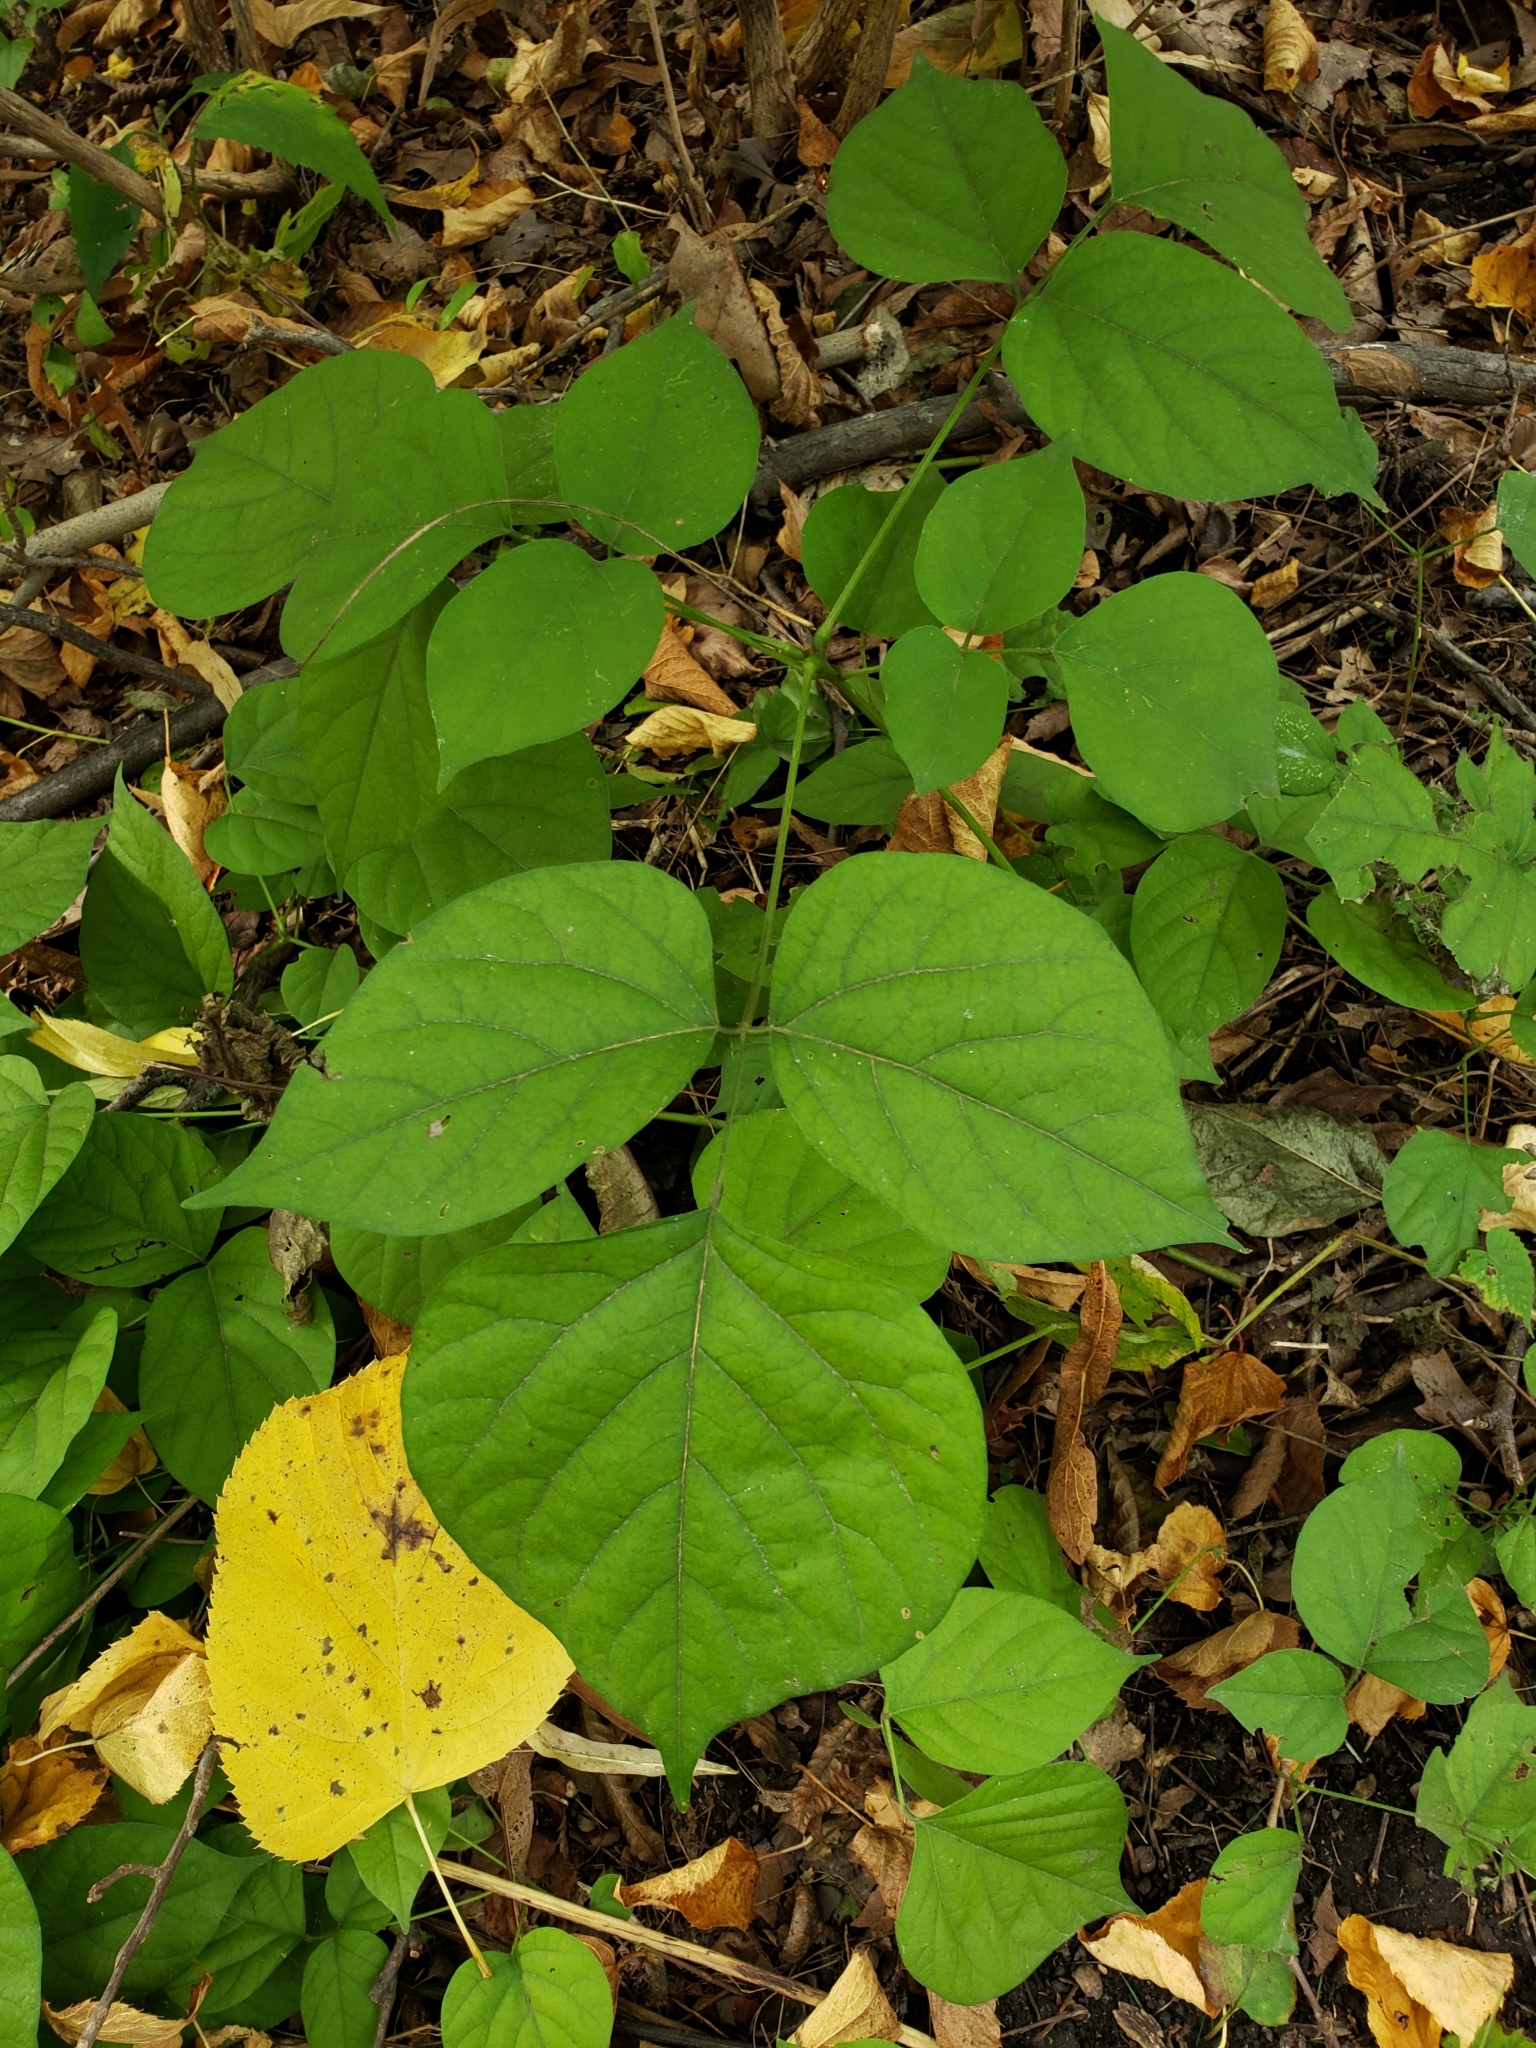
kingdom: Plantae
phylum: Tracheophyta
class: Magnoliopsida
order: Fabales
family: Fabaceae
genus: Hylodesmum
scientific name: Hylodesmum glutinosum
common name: Clustered-leaved tick-trefoil
